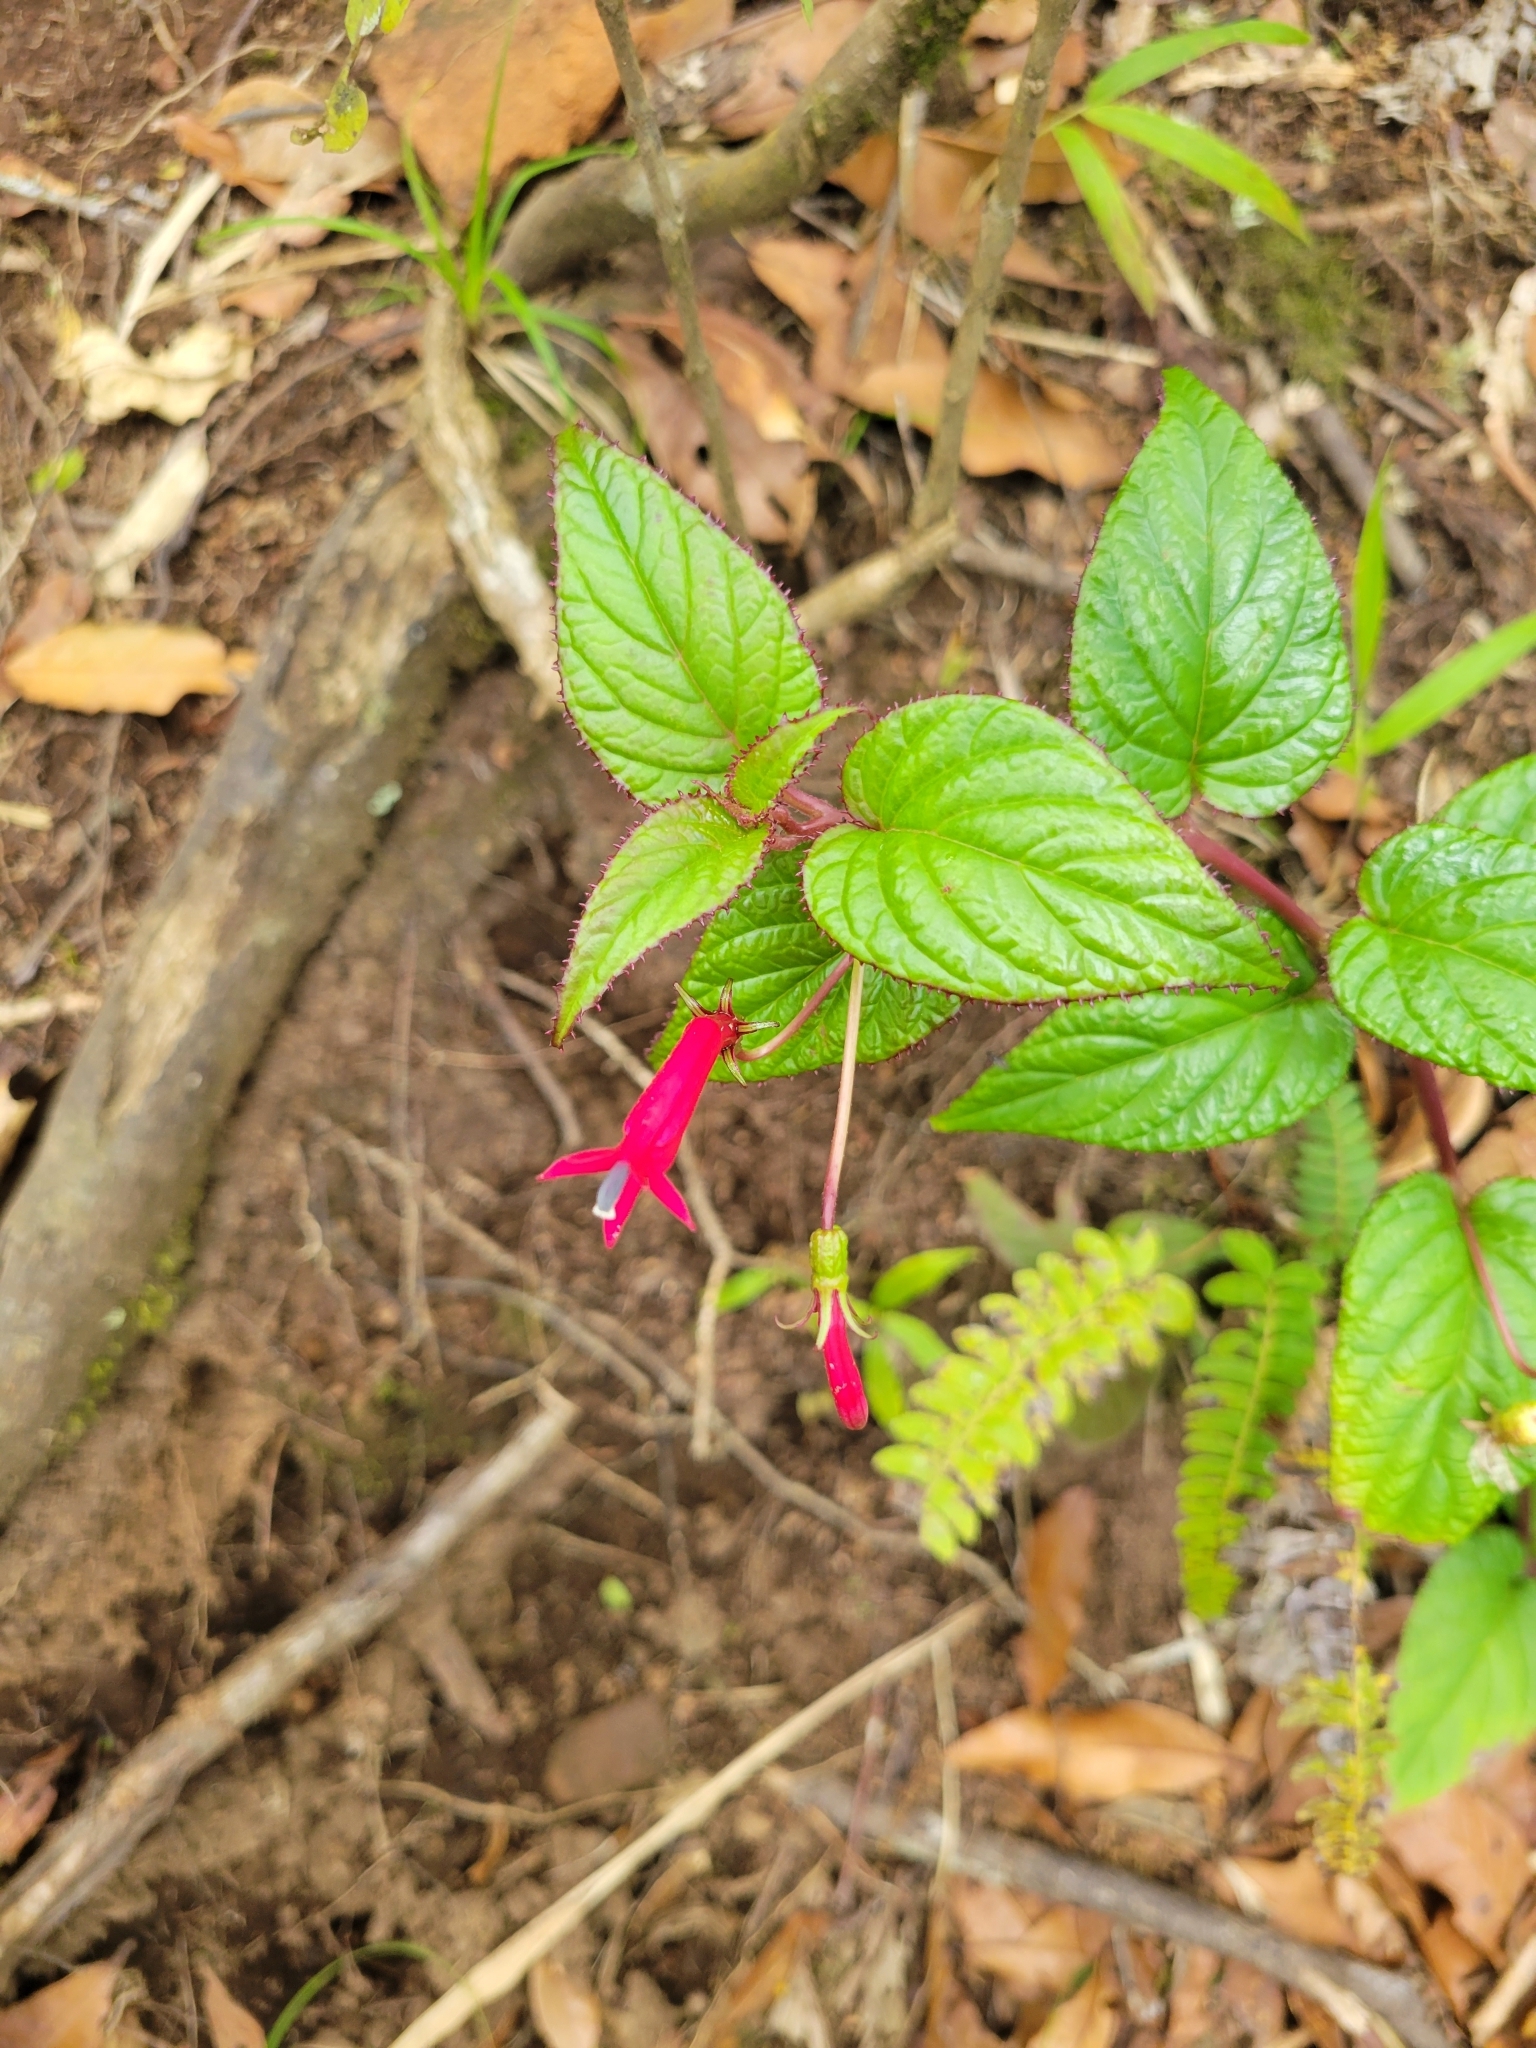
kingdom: Plantae
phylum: Tracheophyta
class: Magnoliopsida
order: Asterales
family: Campanulaceae
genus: Centropogon
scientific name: Centropogon costaricae
